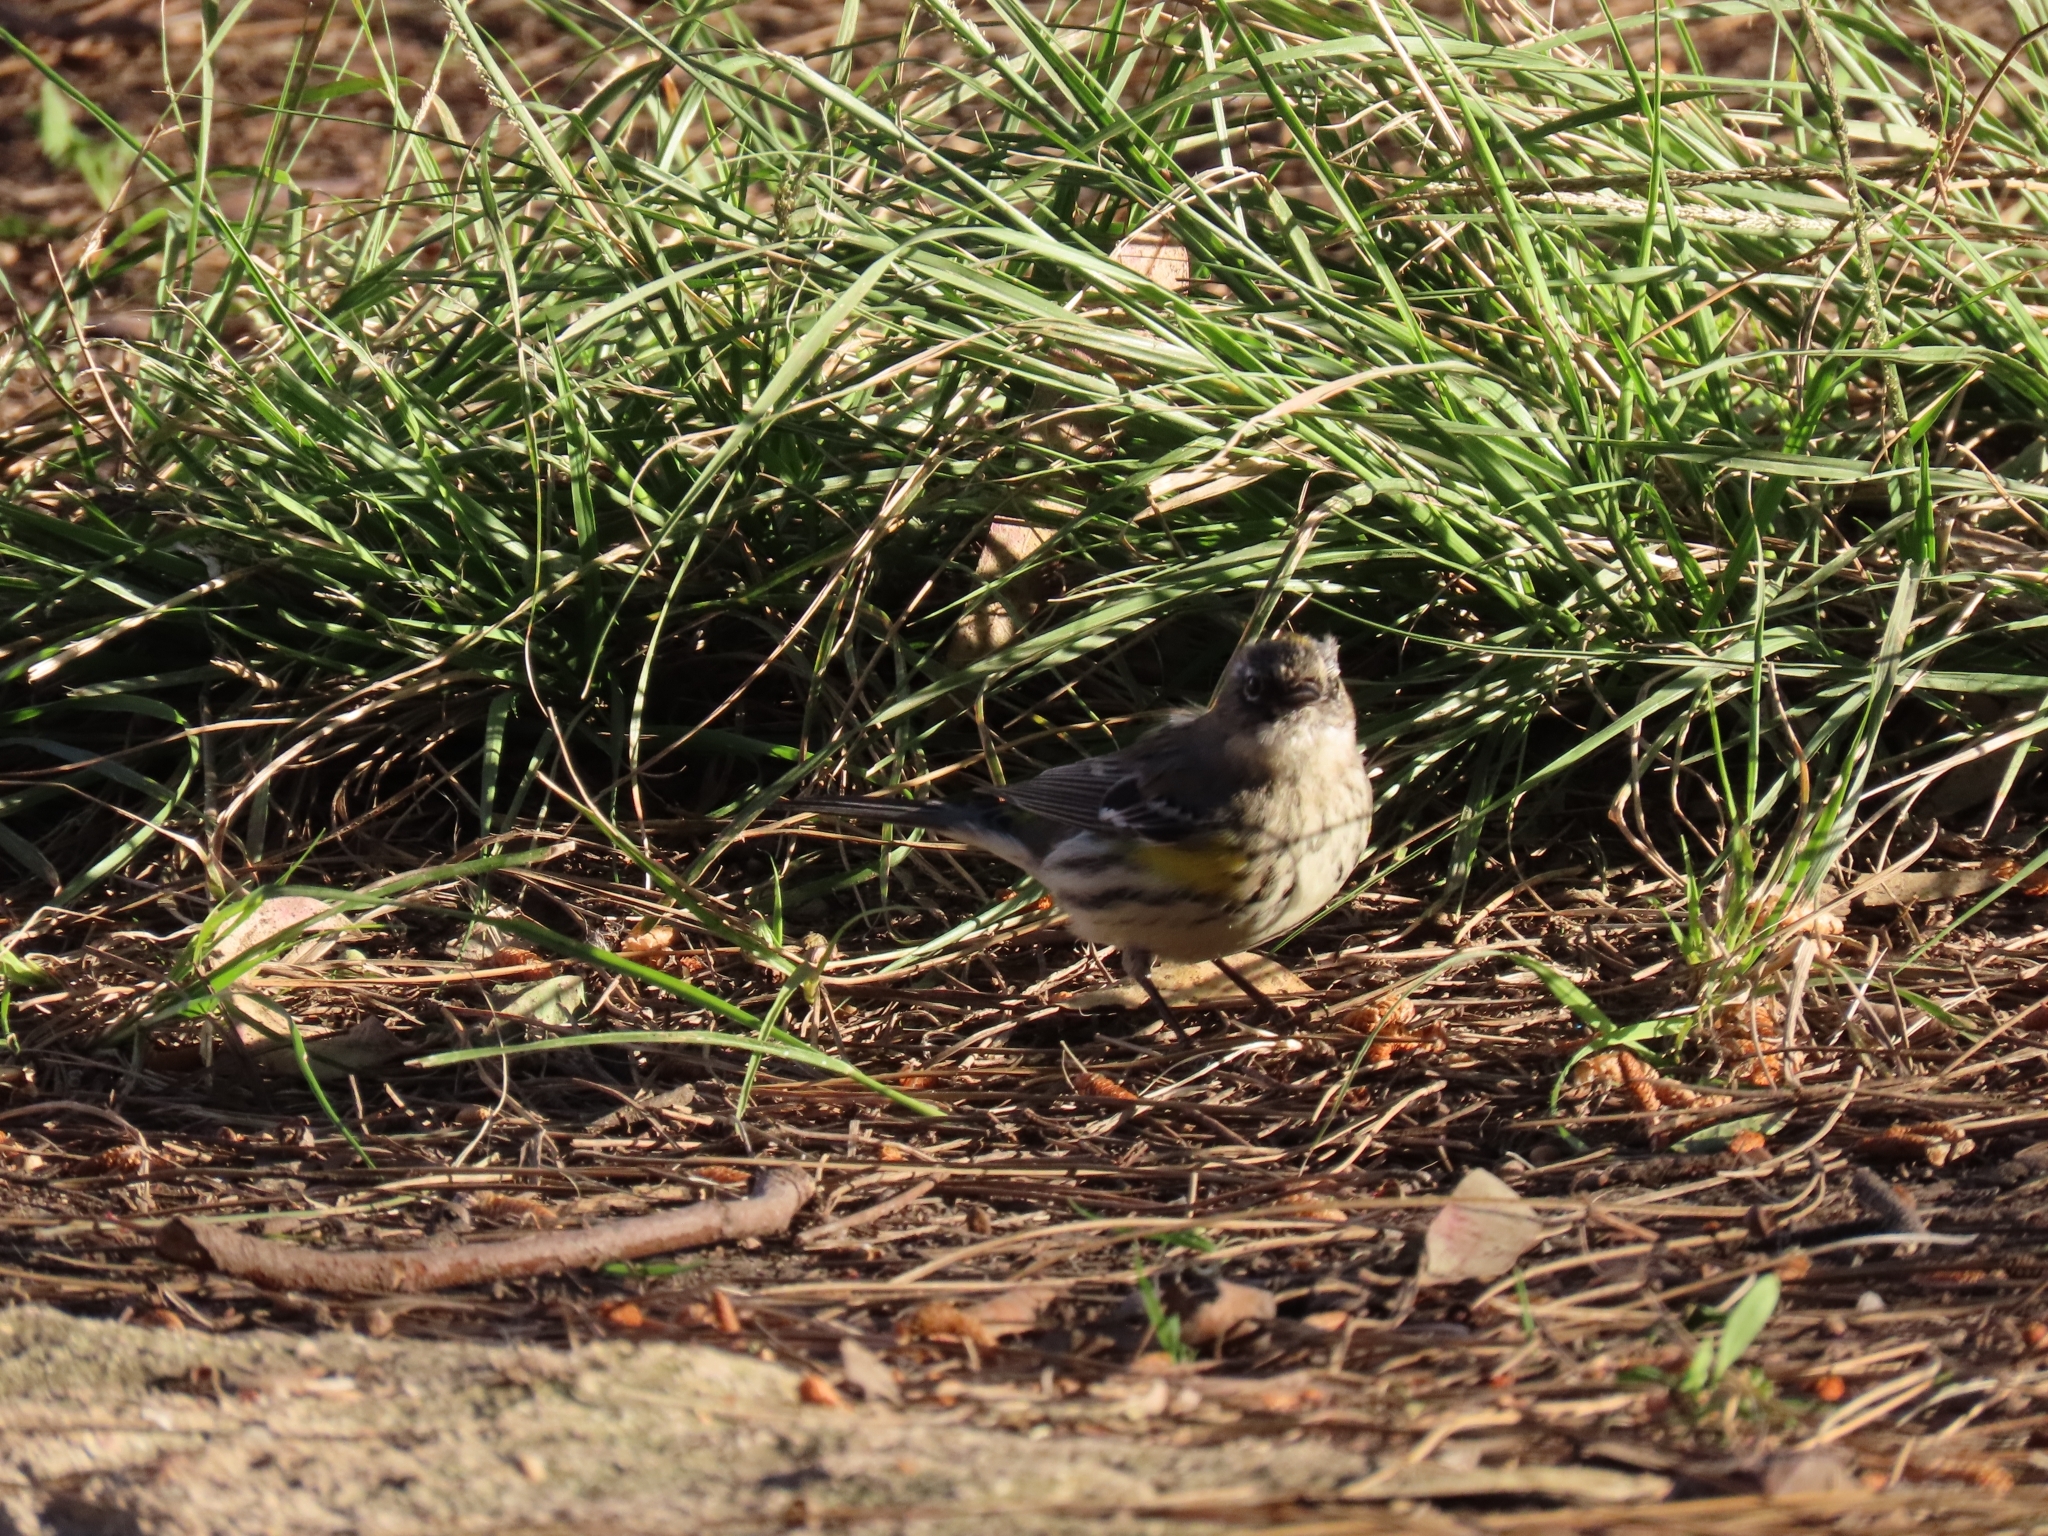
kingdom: Animalia
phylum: Chordata
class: Aves
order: Passeriformes
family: Parulidae
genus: Setophaga
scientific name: Setophaga coronata
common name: Myrtle warbler
